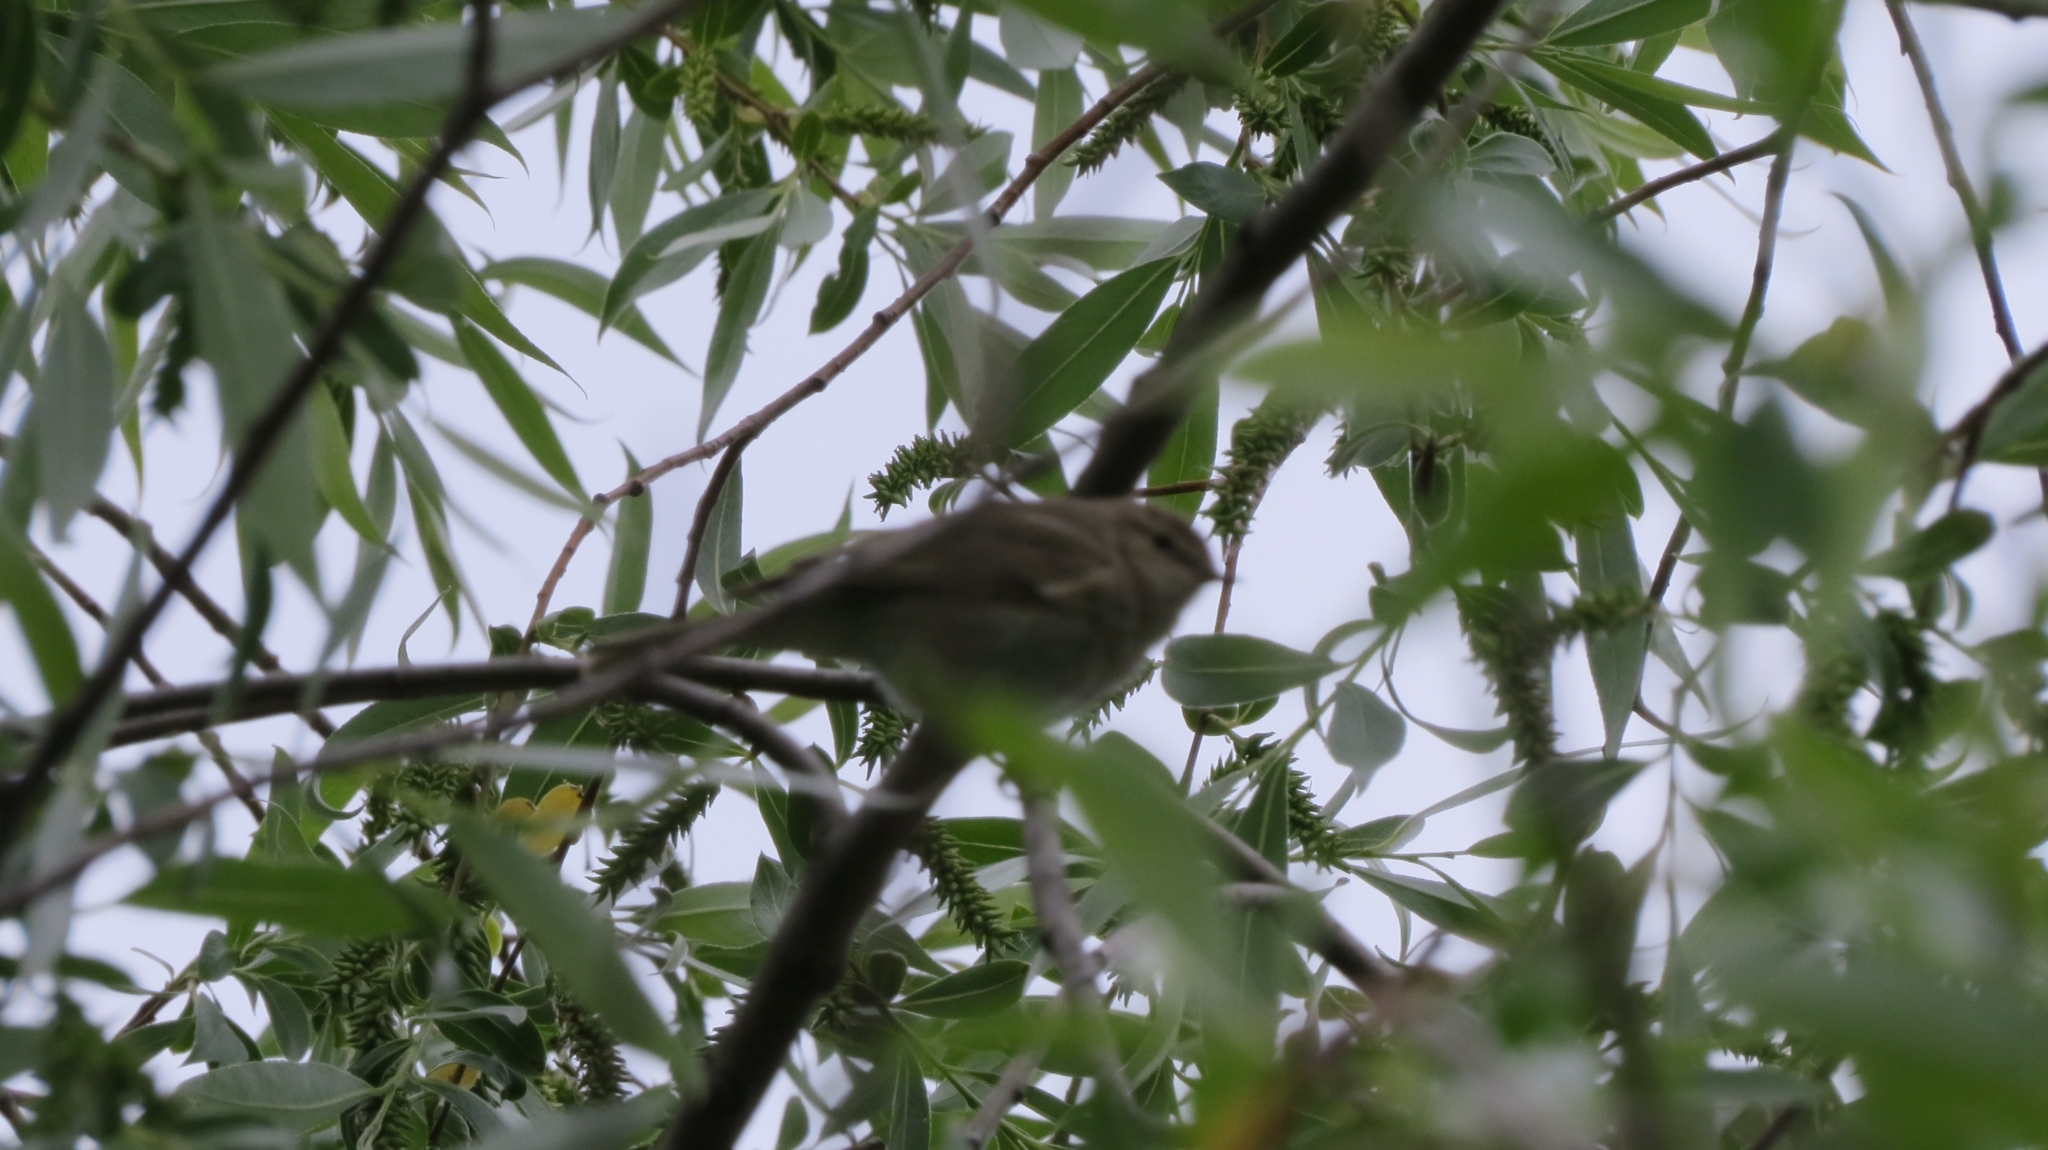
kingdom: Animalia
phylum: Chordata
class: Aves
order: Passeriformes
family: Phylloscopidae
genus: Phylloscopus
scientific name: Phylloscopus
